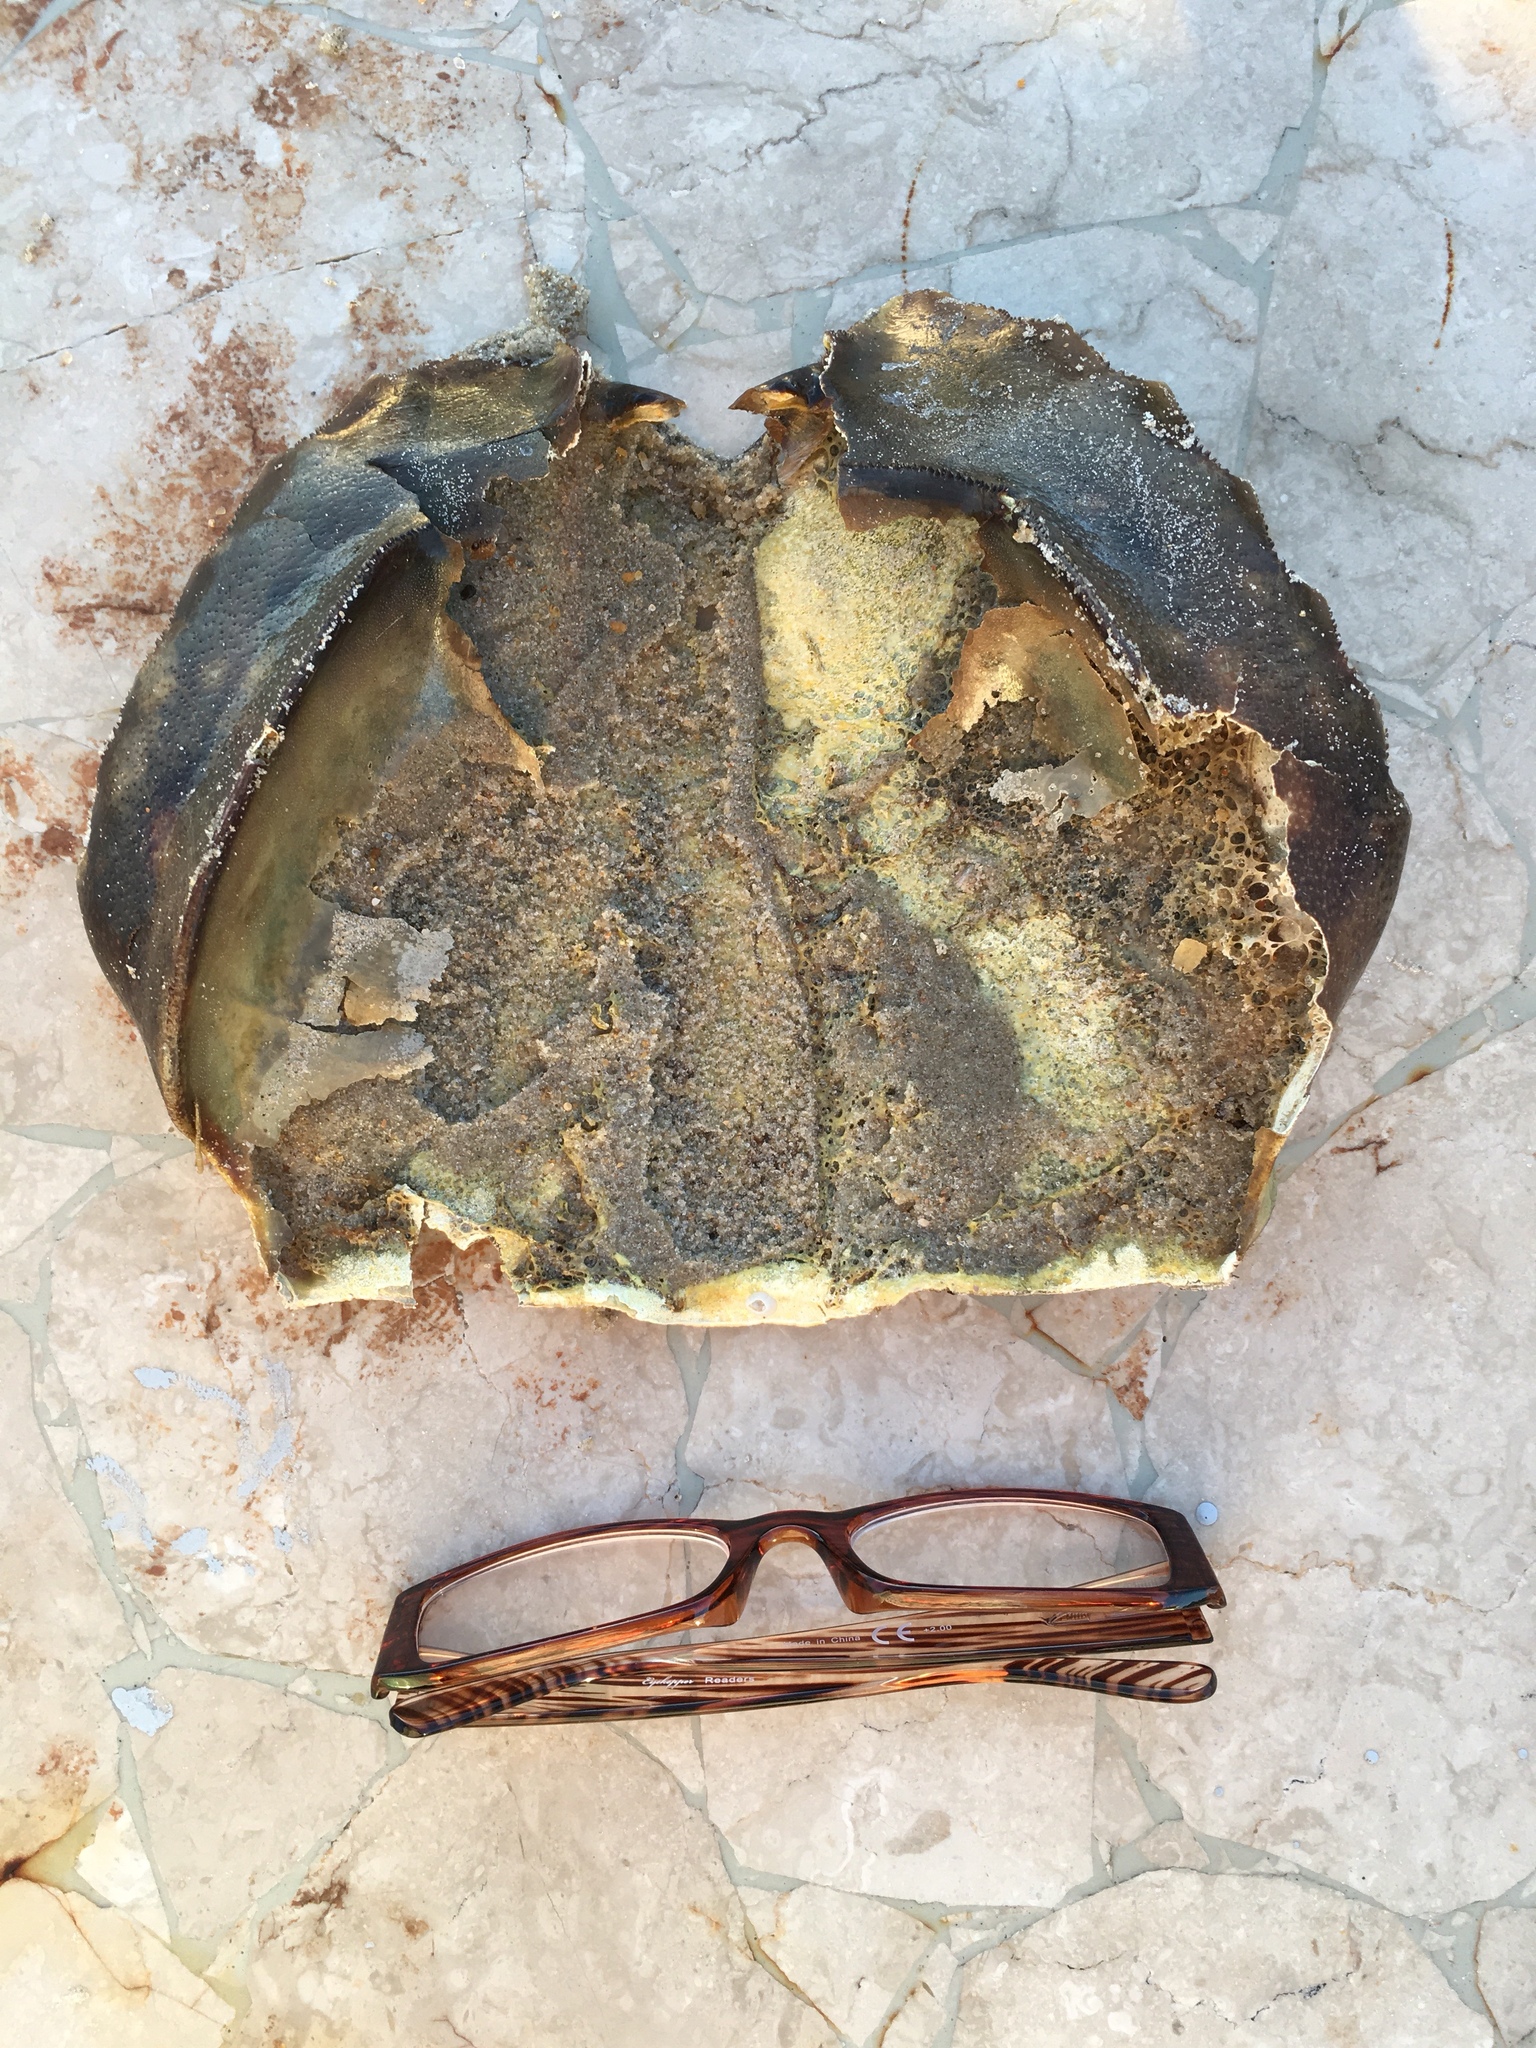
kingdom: Animalia
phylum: Arthropoda
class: Merostomata
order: Xiphosurida
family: Limulidae
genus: Limulus
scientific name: Limulus polyphemus
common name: Horseshoe crab
